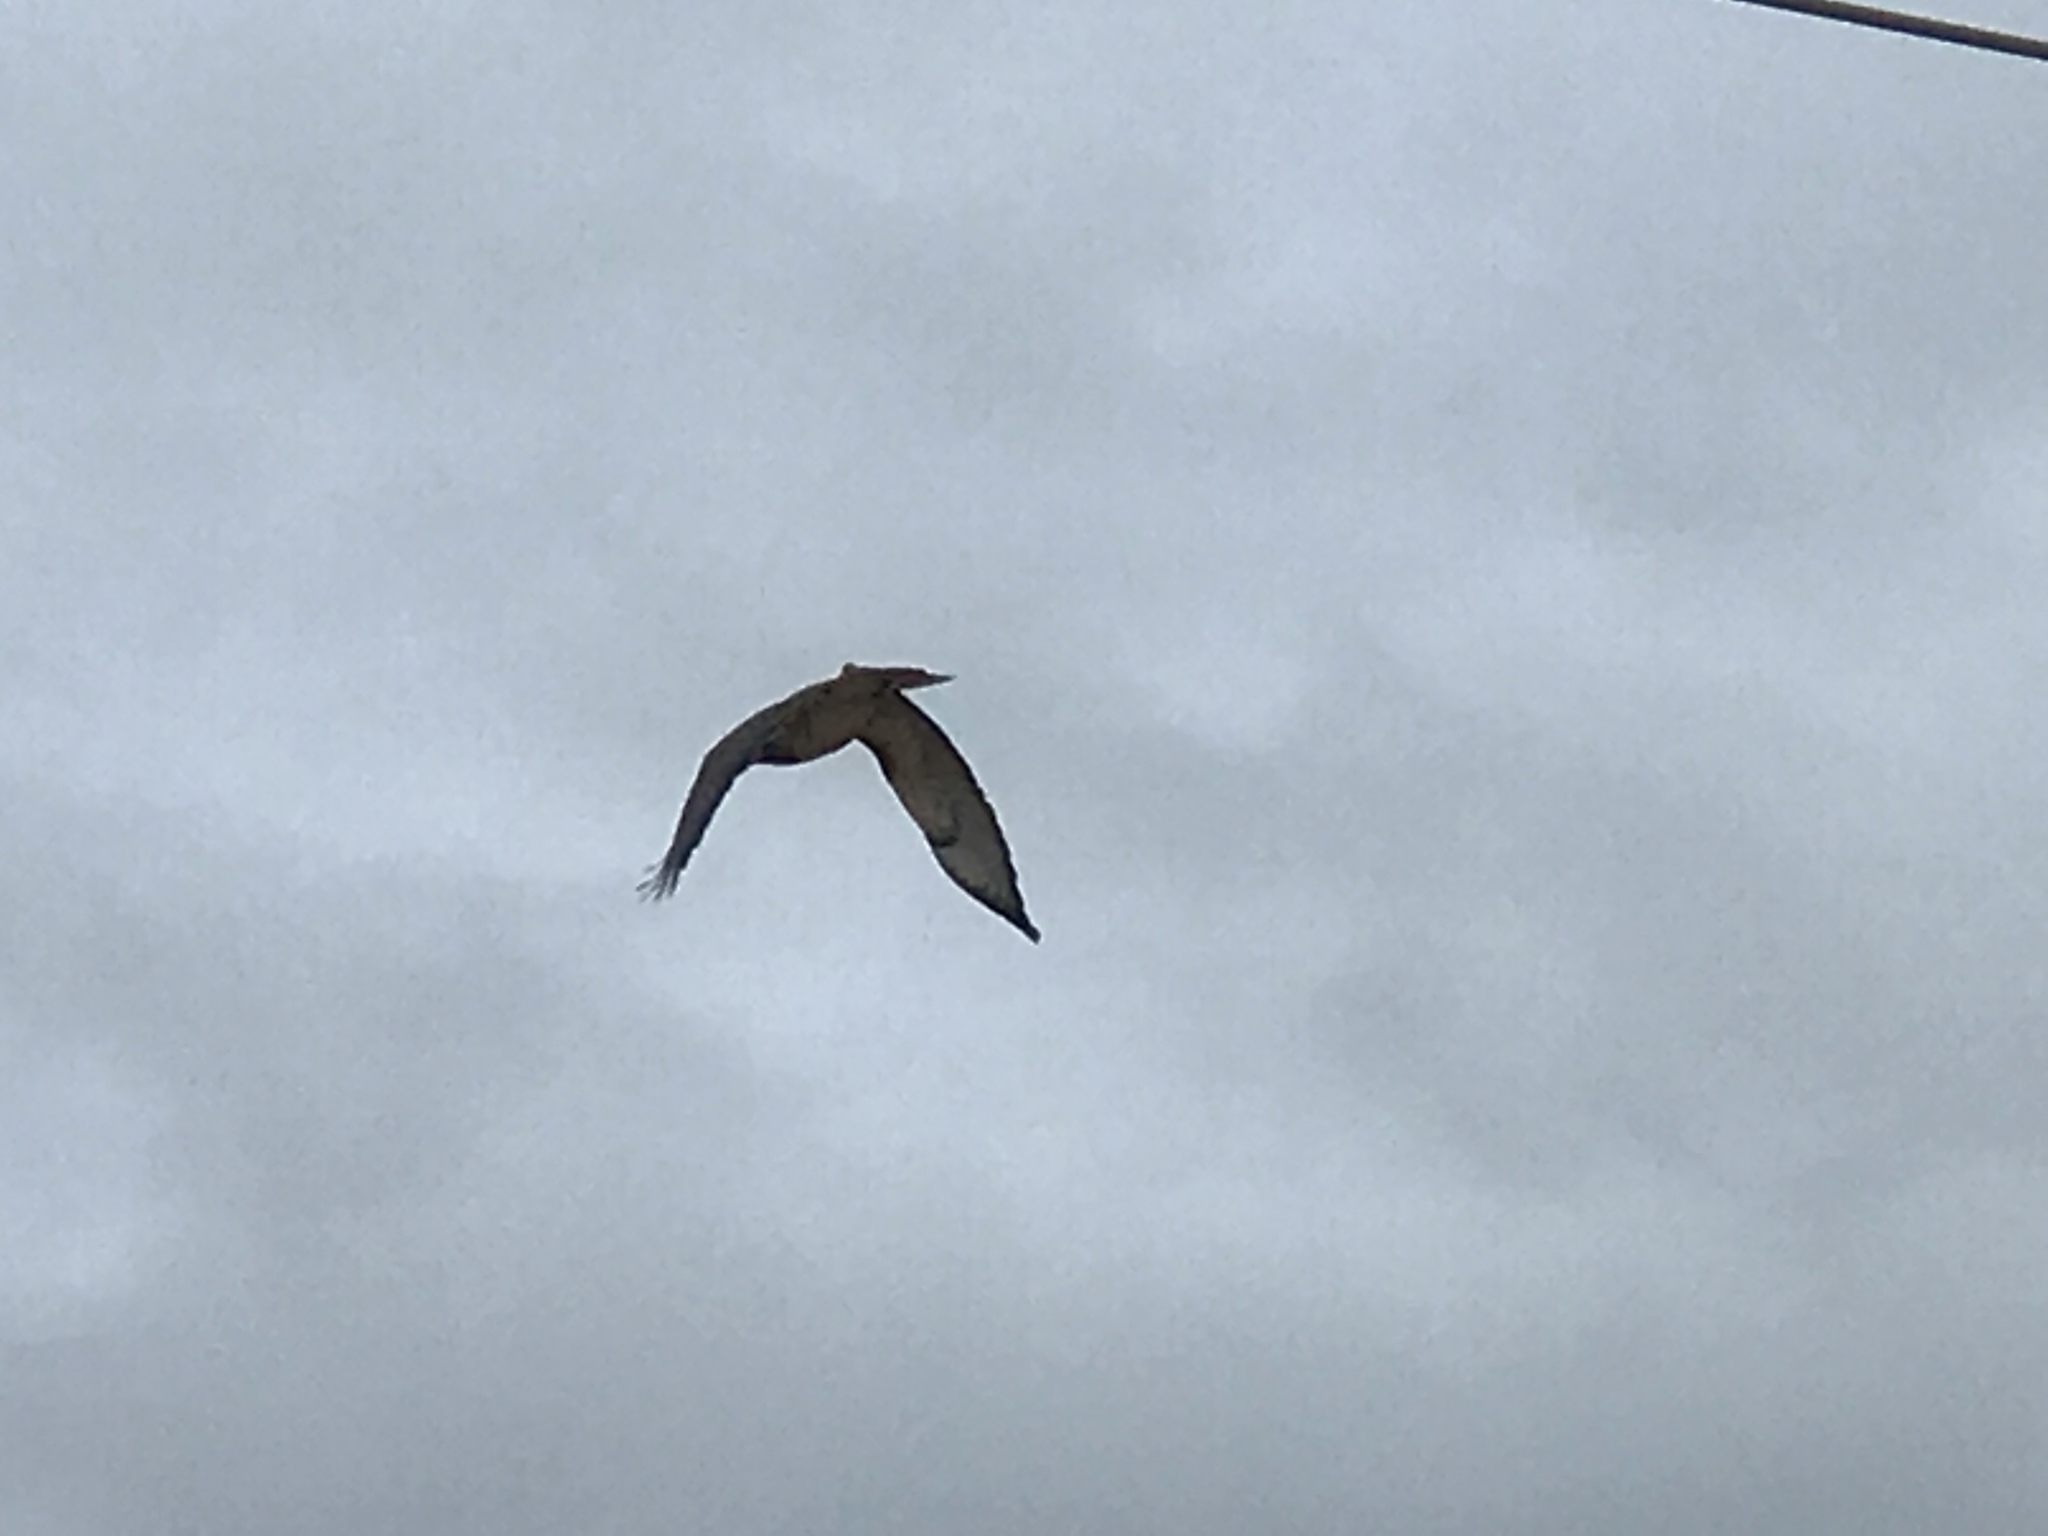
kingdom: Animalia
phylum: Chordata
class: Aves
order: Accipitriformes
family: Accipitridae
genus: Buteo
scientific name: Buteo jamaicensis
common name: Red-tailed hawk
